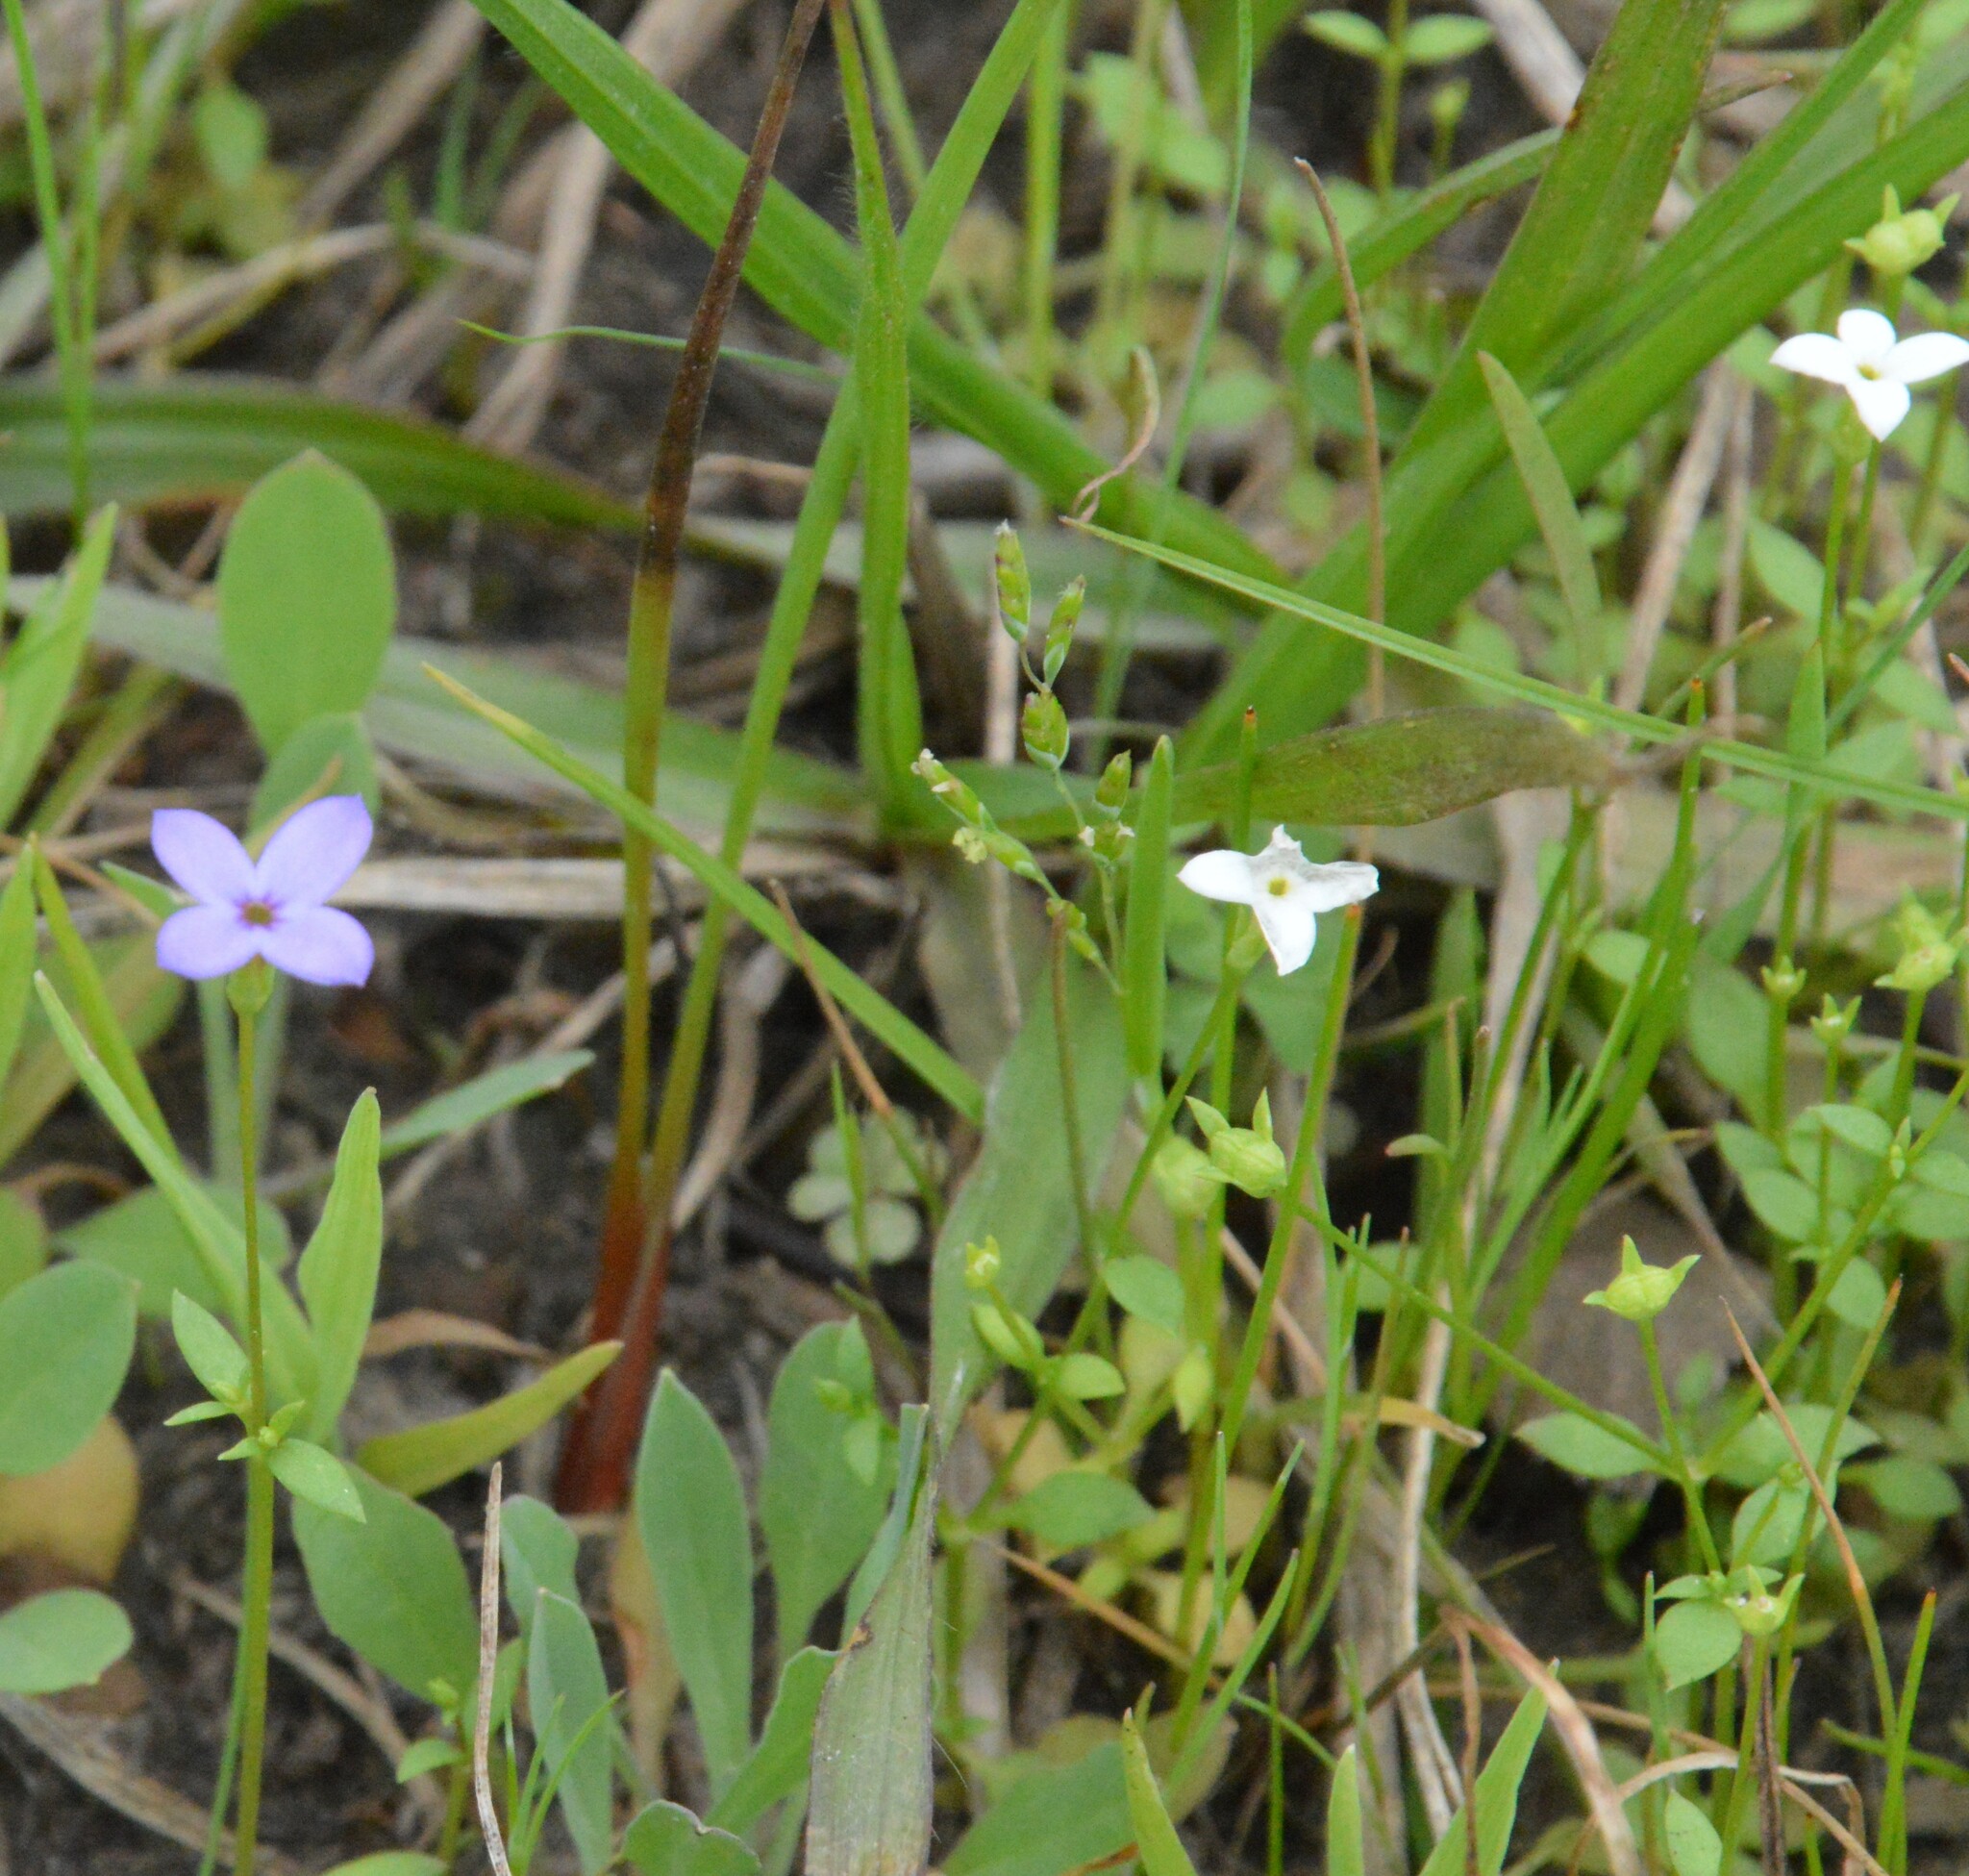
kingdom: Plantae
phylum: Tracheophyta
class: Magnoliopsida
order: Gentianales
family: Rubiaceae
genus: Houstonia
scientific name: Houstonia micrantha
